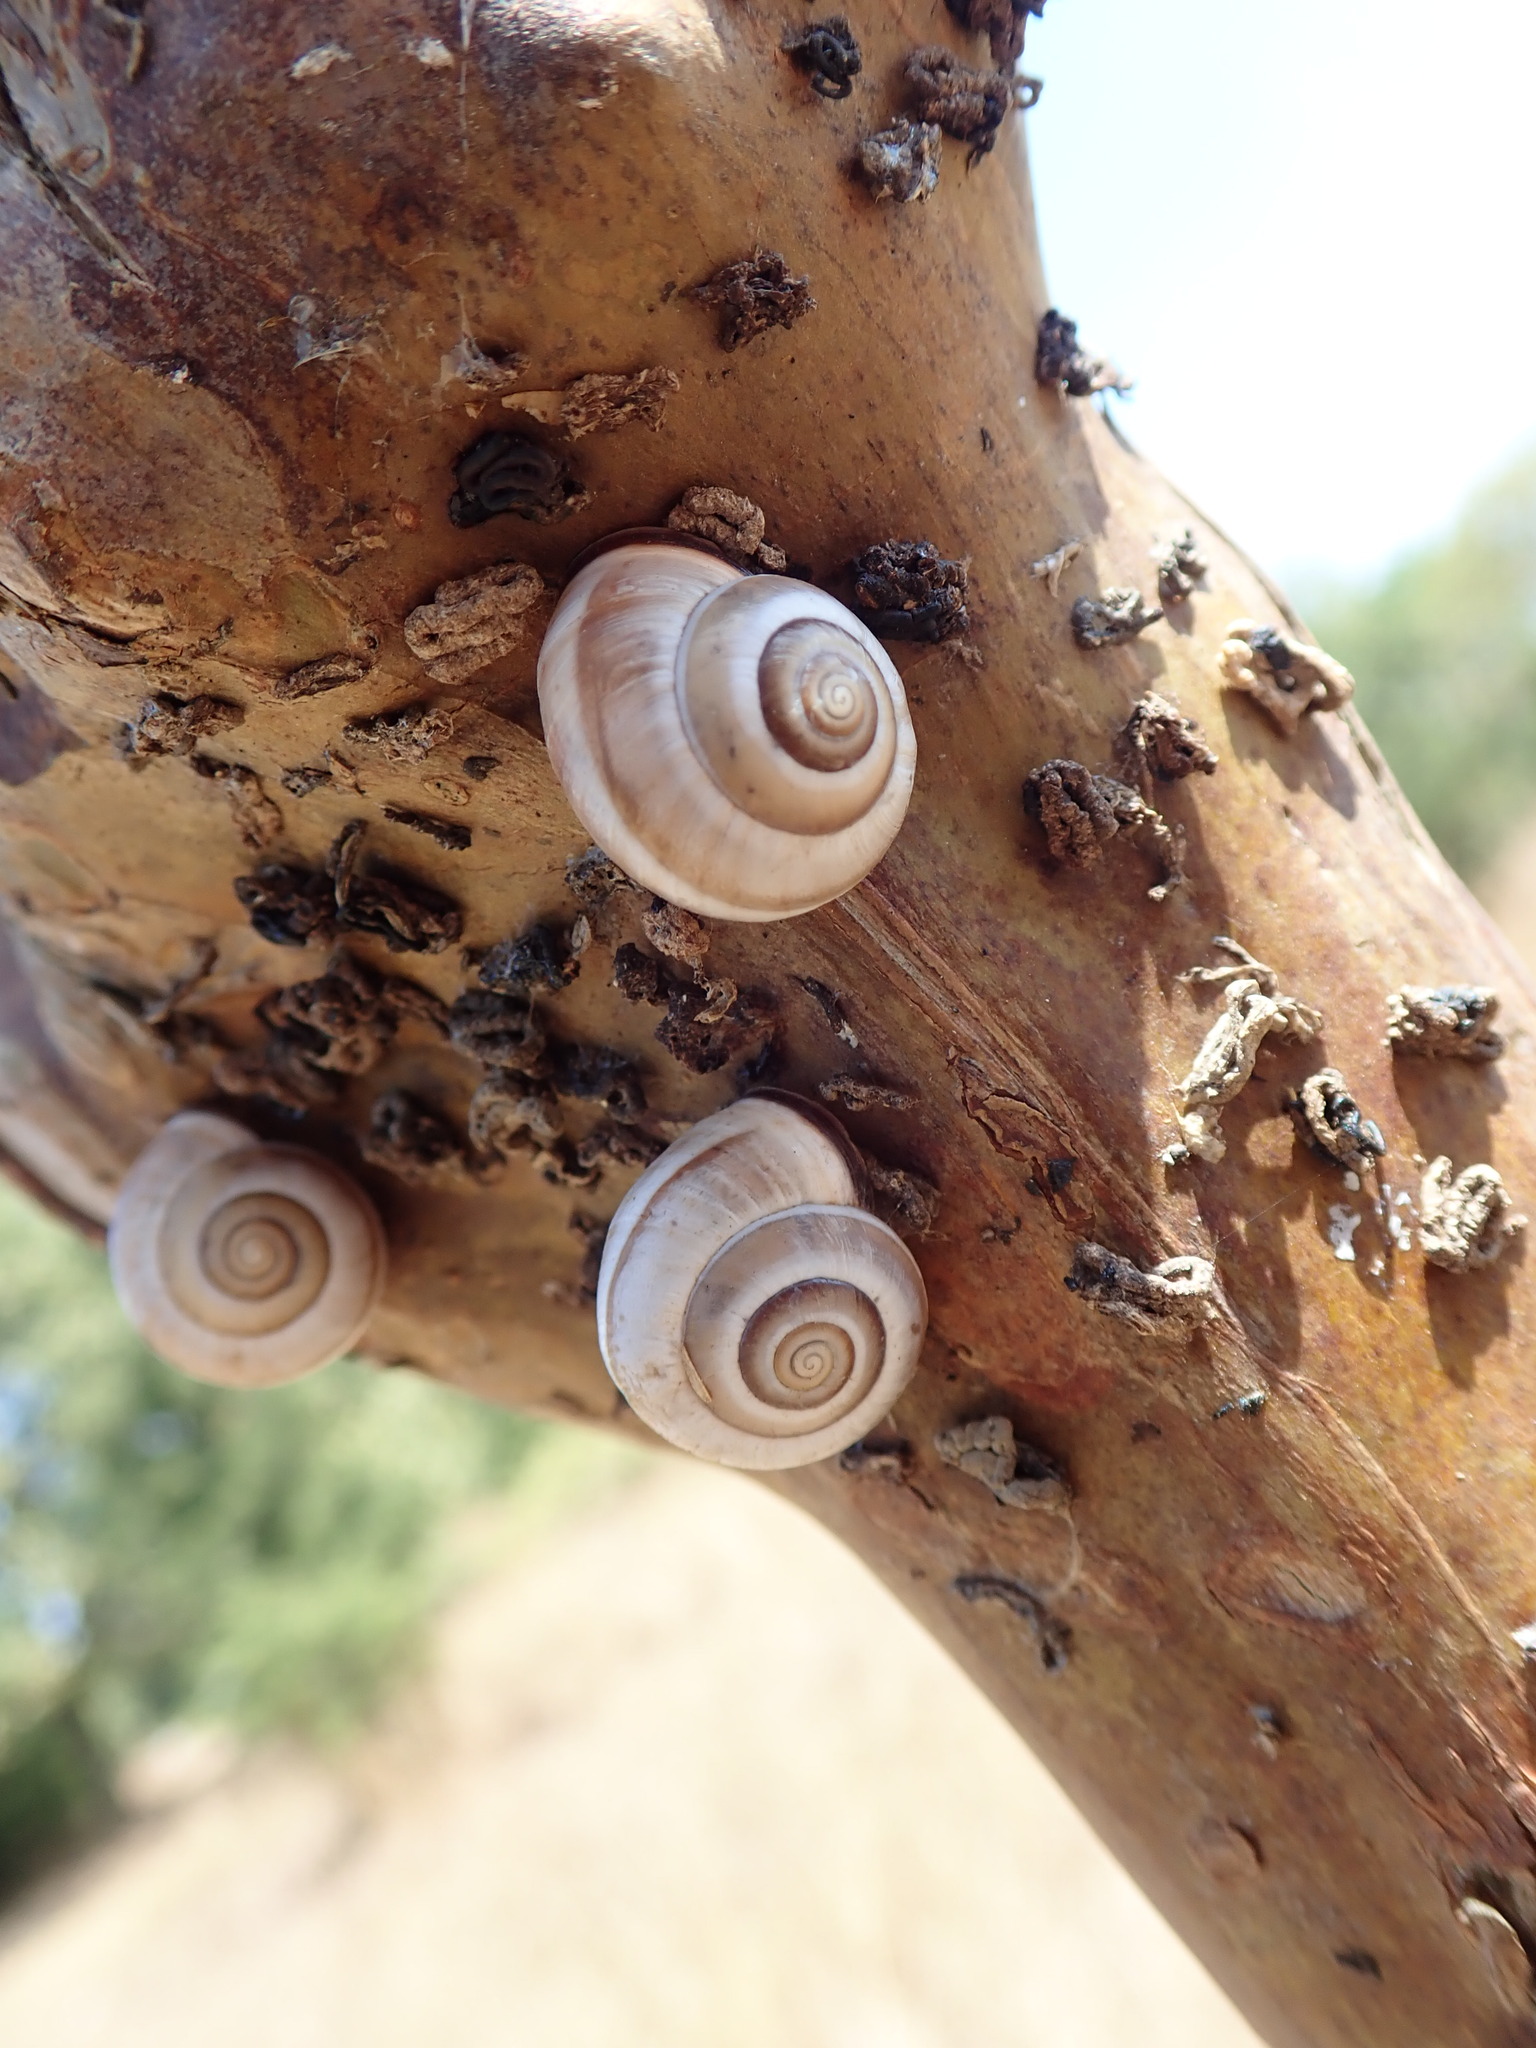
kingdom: Animalia
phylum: Mollusca
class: Gastropoda
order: Stylommatophora
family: Hygromiidae
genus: Monacha
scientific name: Monacha ocellata
